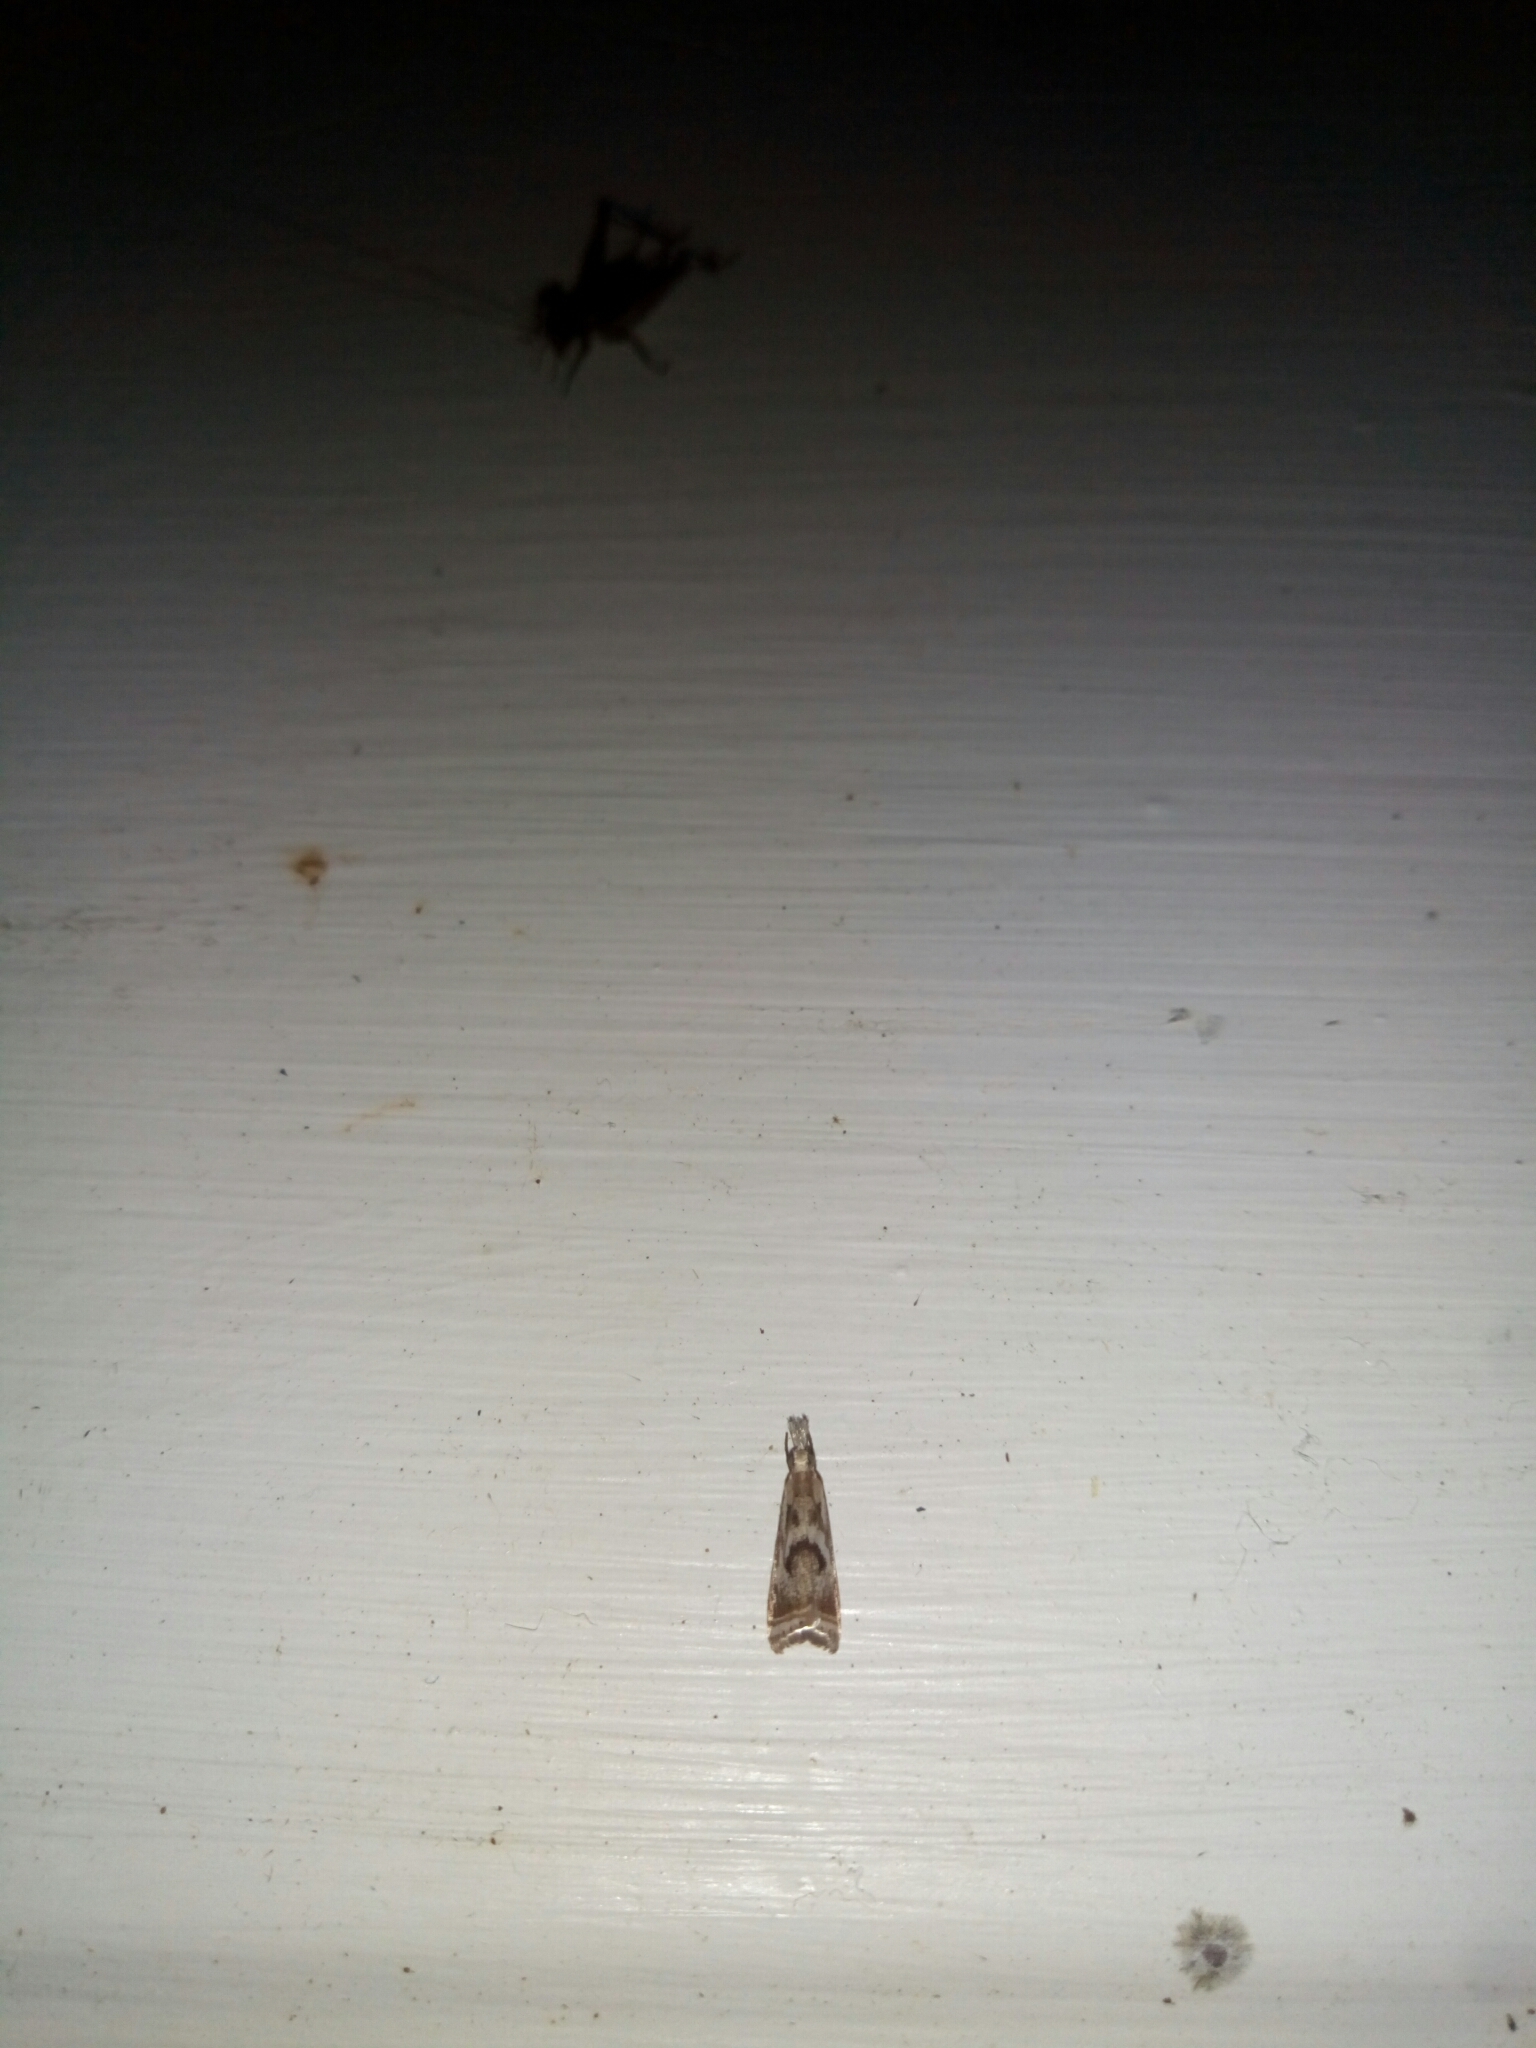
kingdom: Animalia
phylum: Arthropoda
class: Insecta
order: Lepidoptera
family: Crambidae
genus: Microcrambus
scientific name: Microcrambus elegans
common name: Elegant grass-veneer
